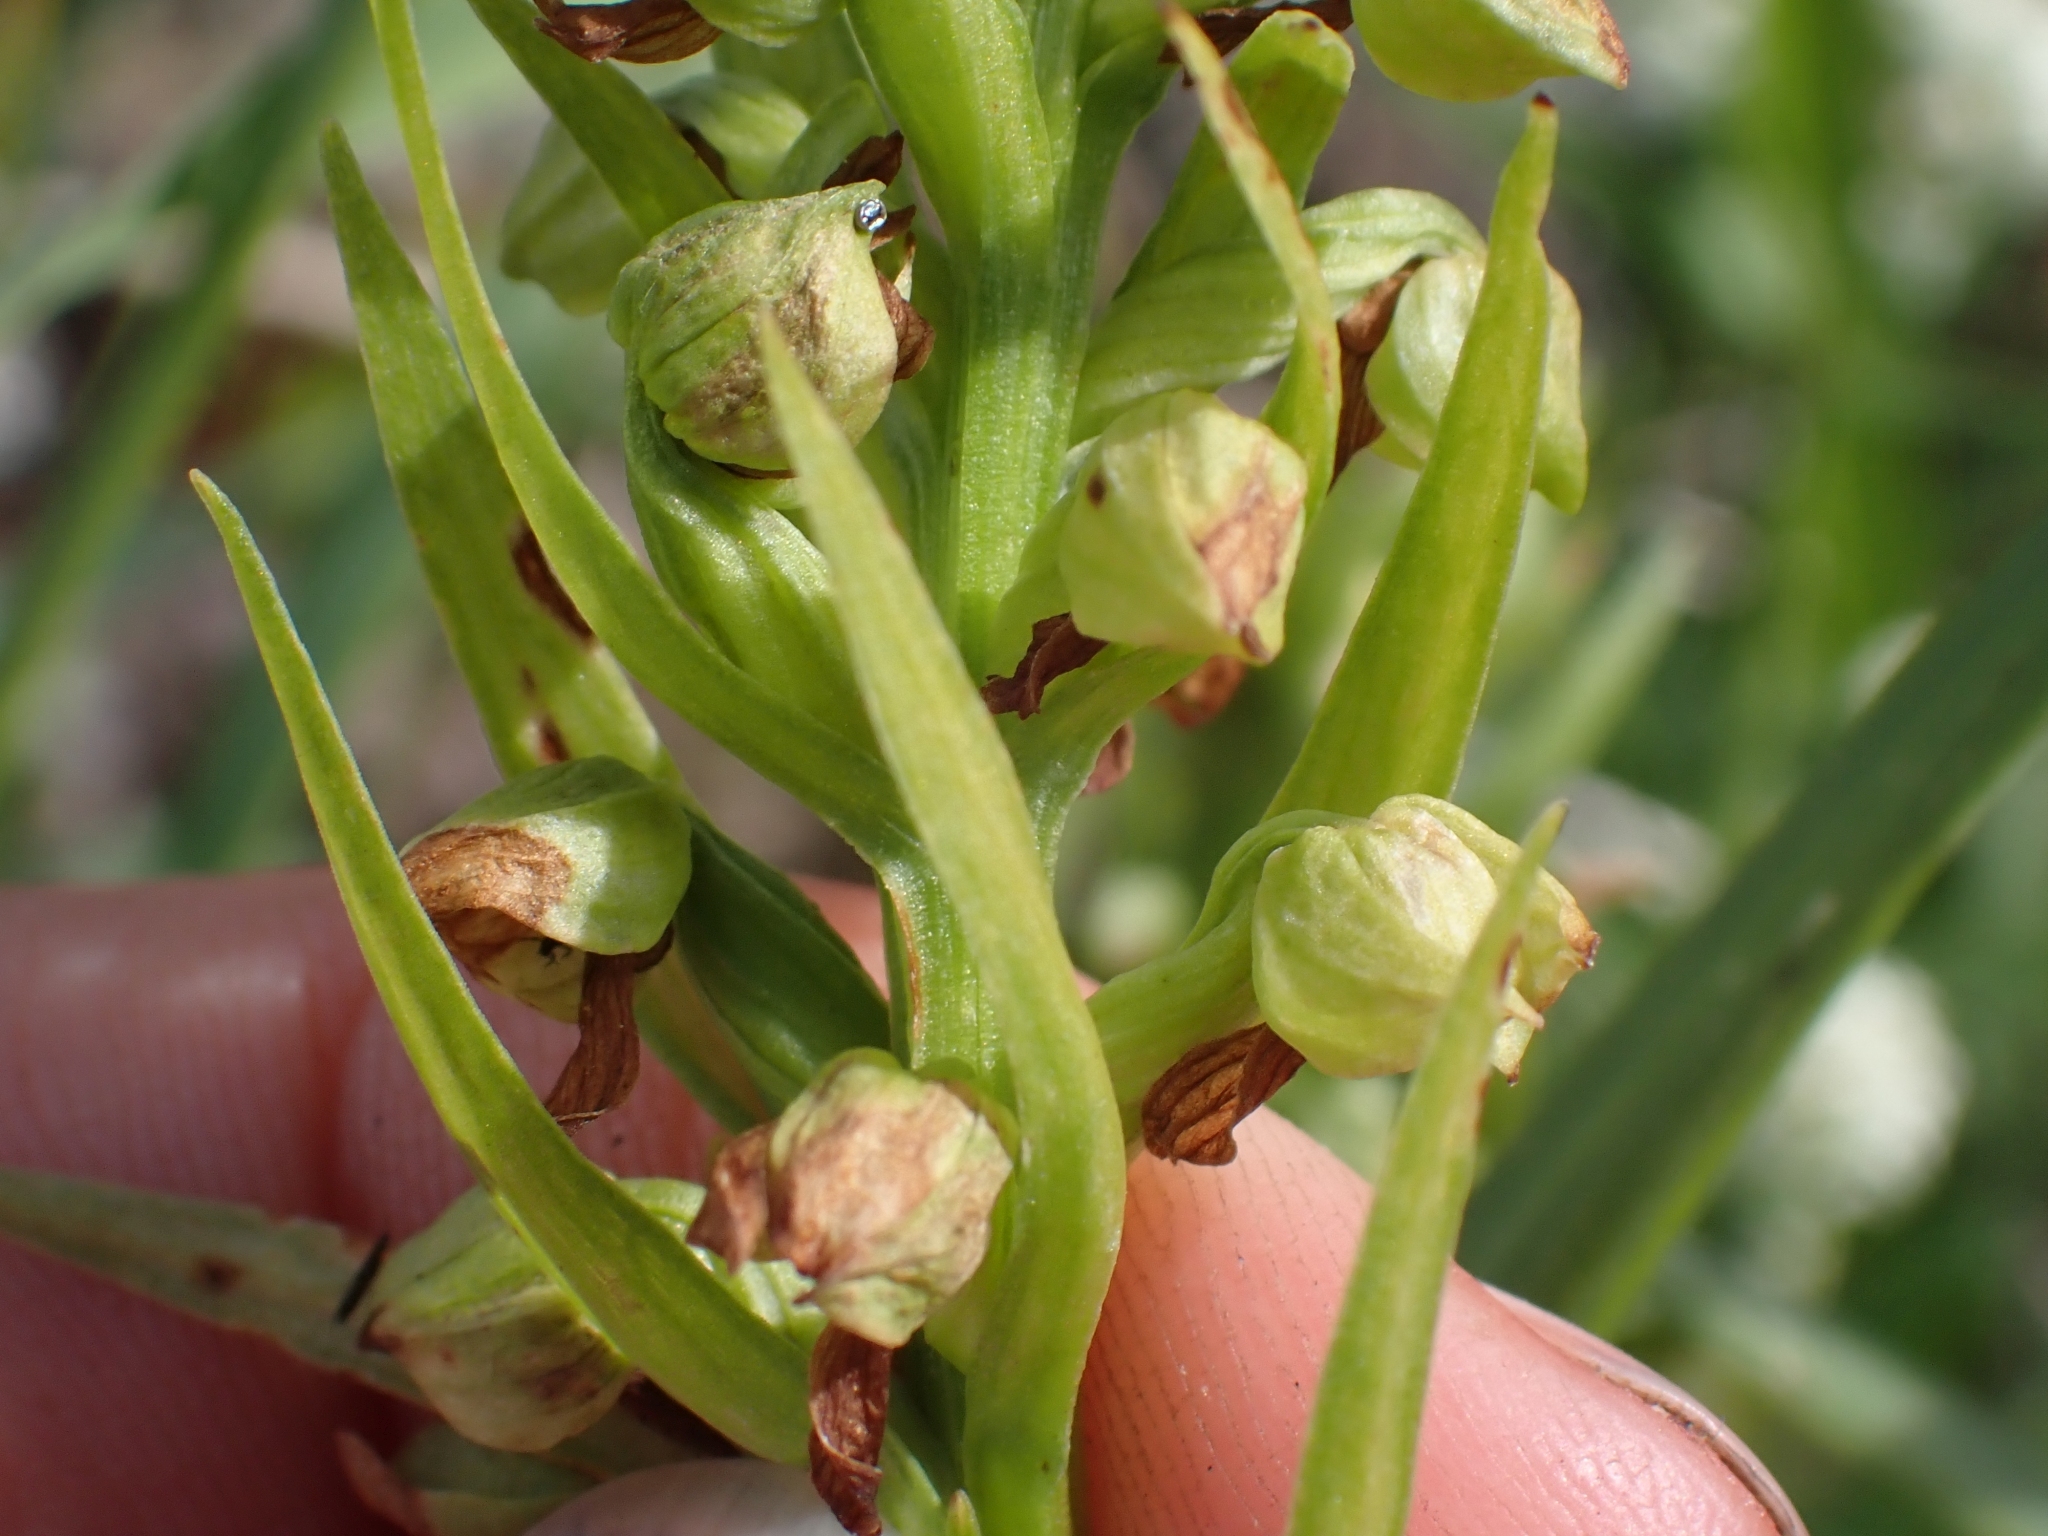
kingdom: Plantae
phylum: Tracheophyta
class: Liliopsida
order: Asparagales
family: Orchidaceae
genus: Dactylorhiza
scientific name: Dactylorhiza viridis
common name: Longbract frog orchid
